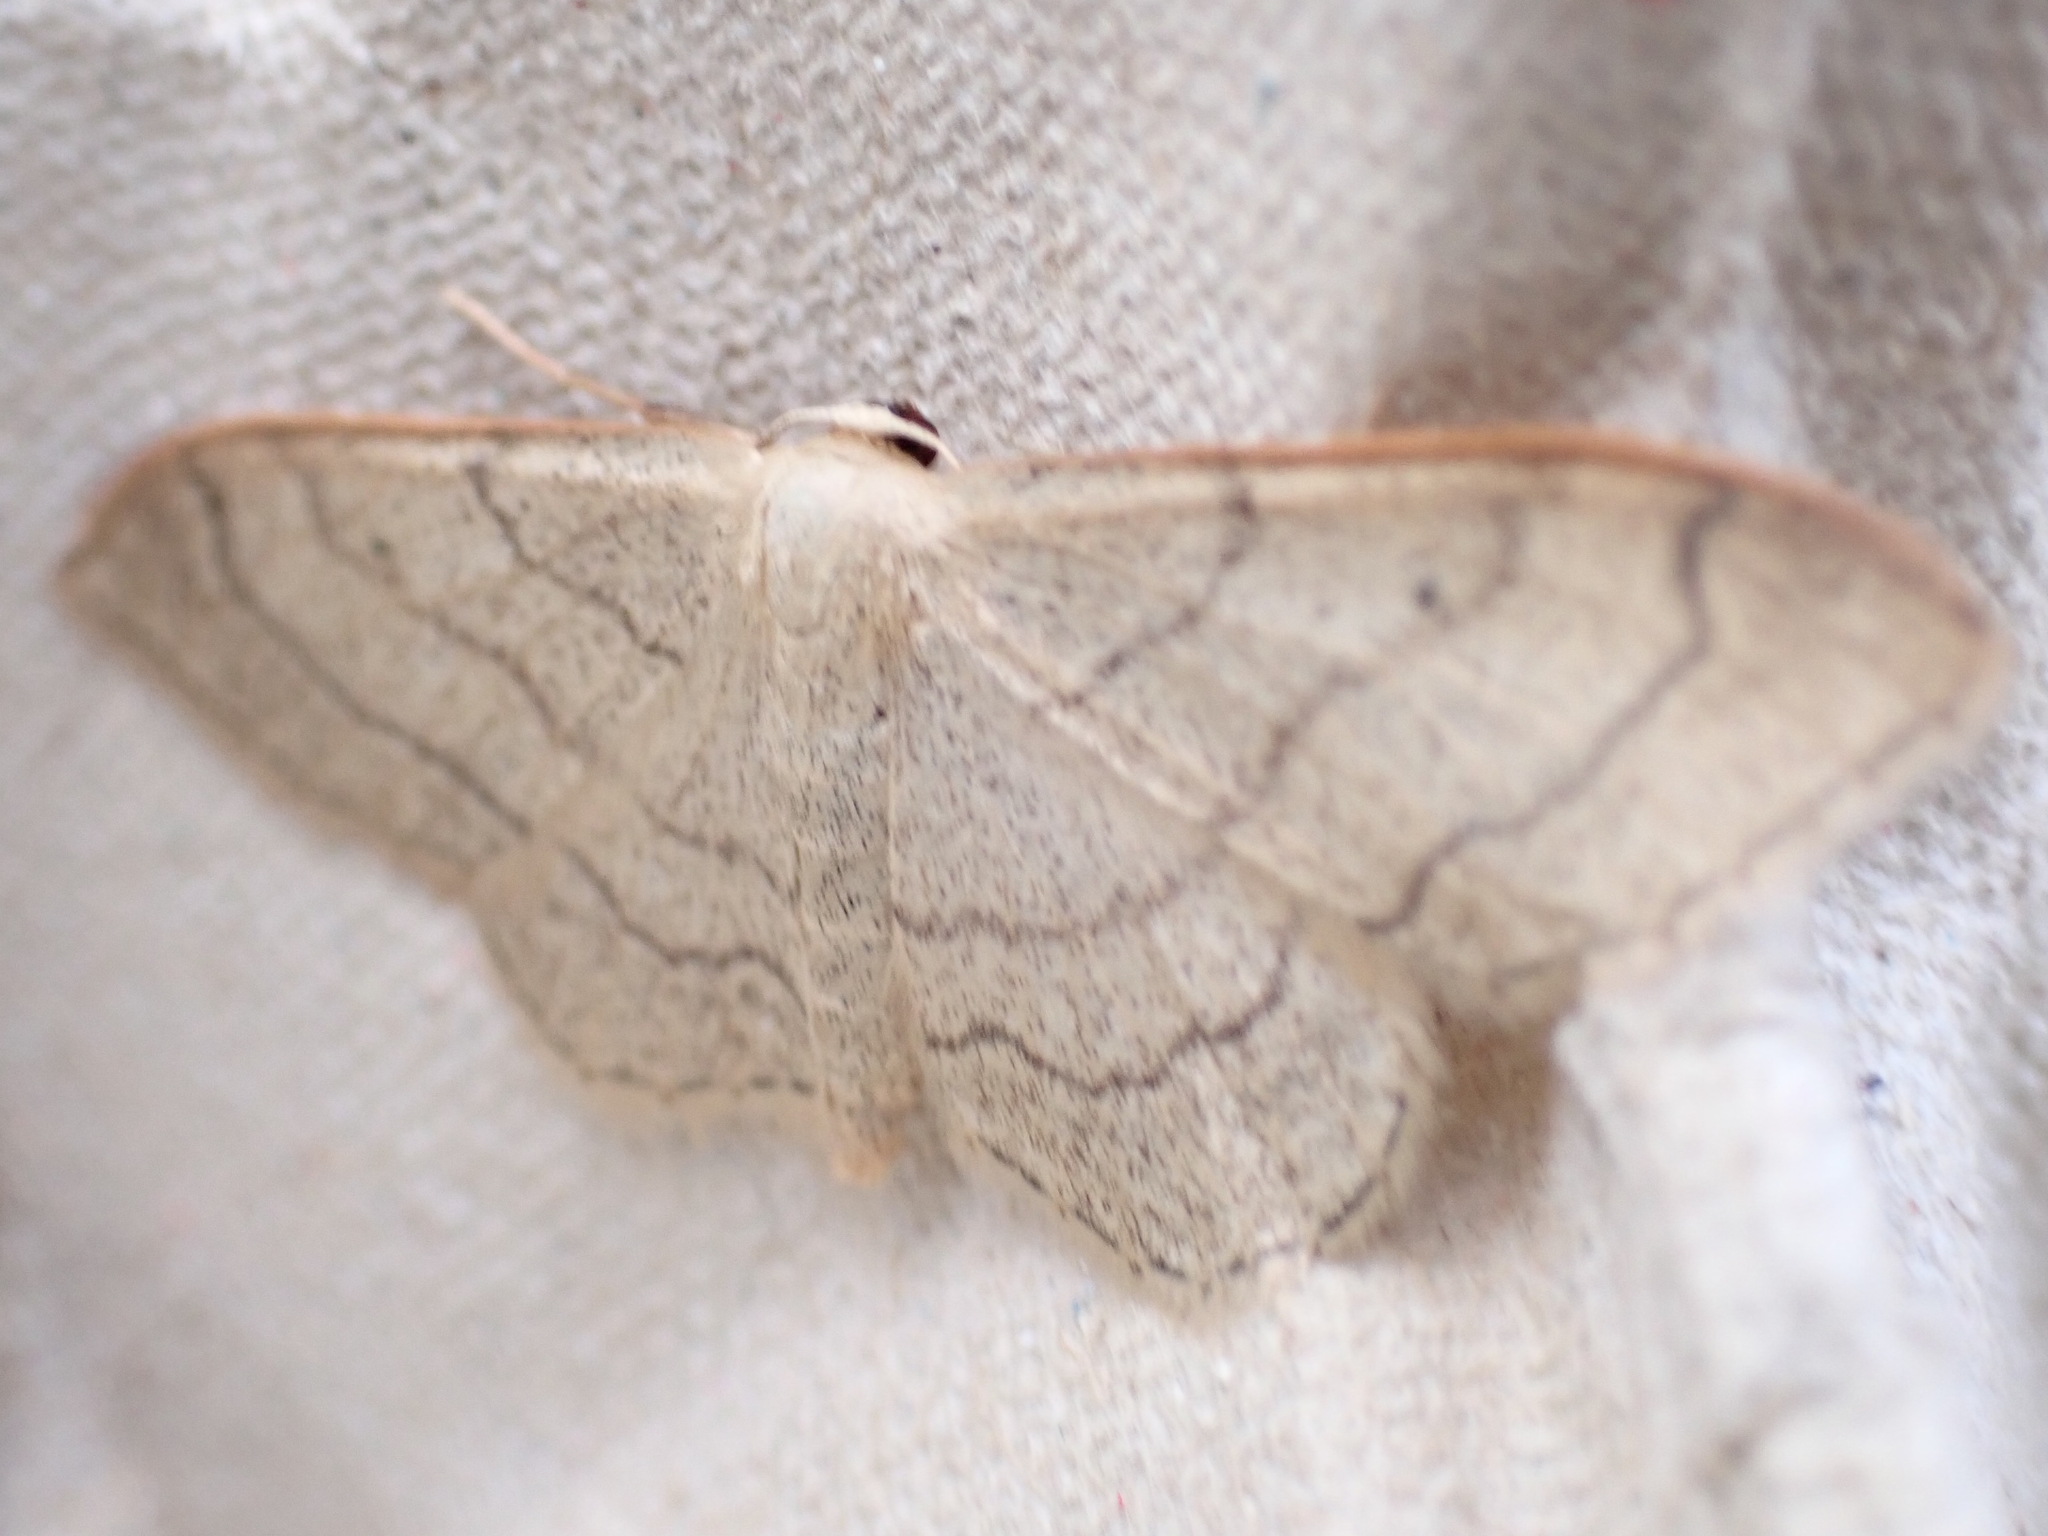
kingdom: Animalia
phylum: Arthropoda
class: Insecta
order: Lepidoptera
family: Geometridae
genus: Idaea
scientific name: Idaea aversata
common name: Riband wave
